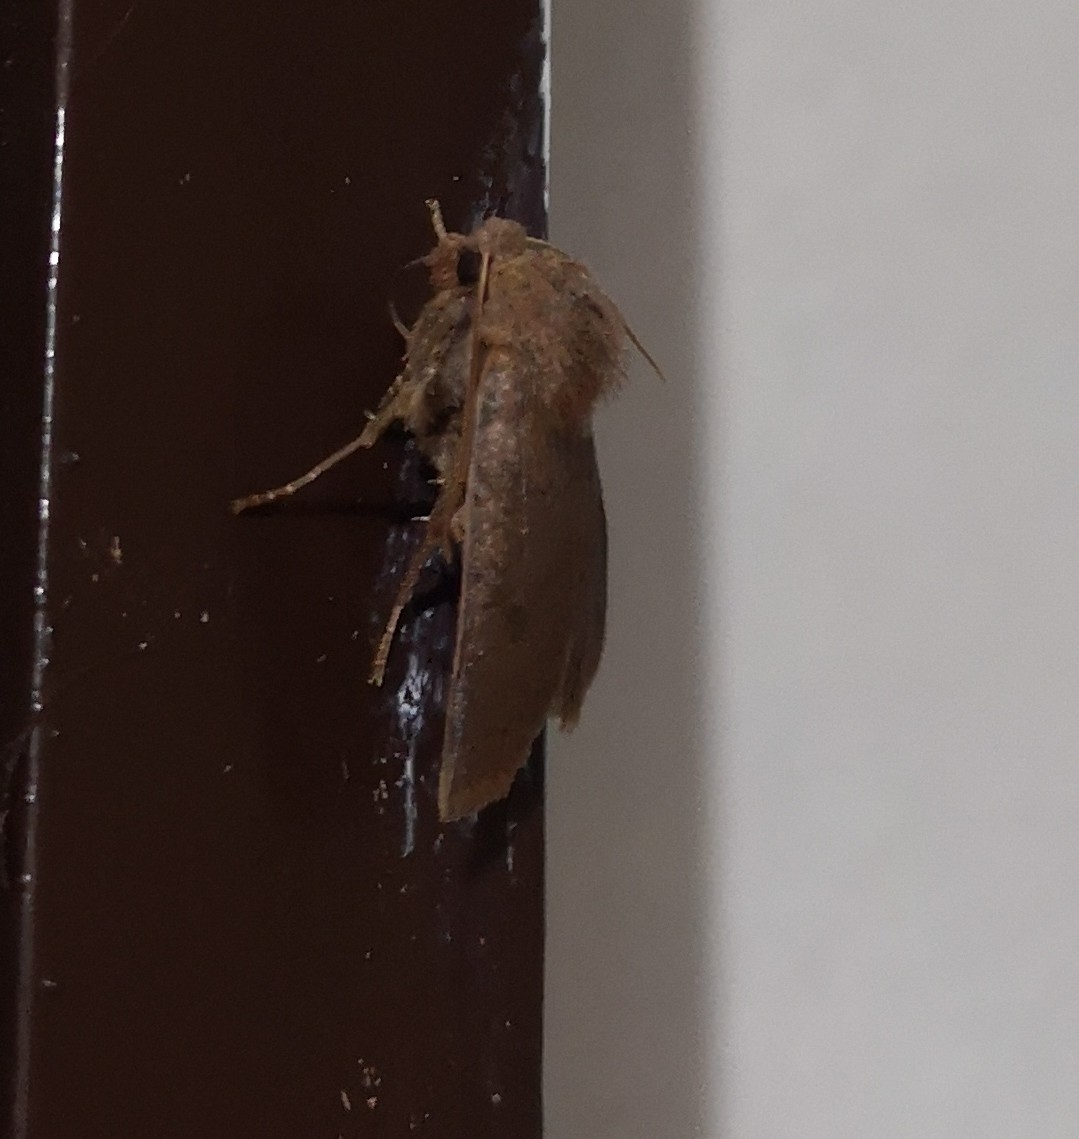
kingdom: Animalia
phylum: Arthropoda
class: Insecta
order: Lepidoptera
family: Noctuidae
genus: Conistra
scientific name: Conistra vaccinii
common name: Chestnut
